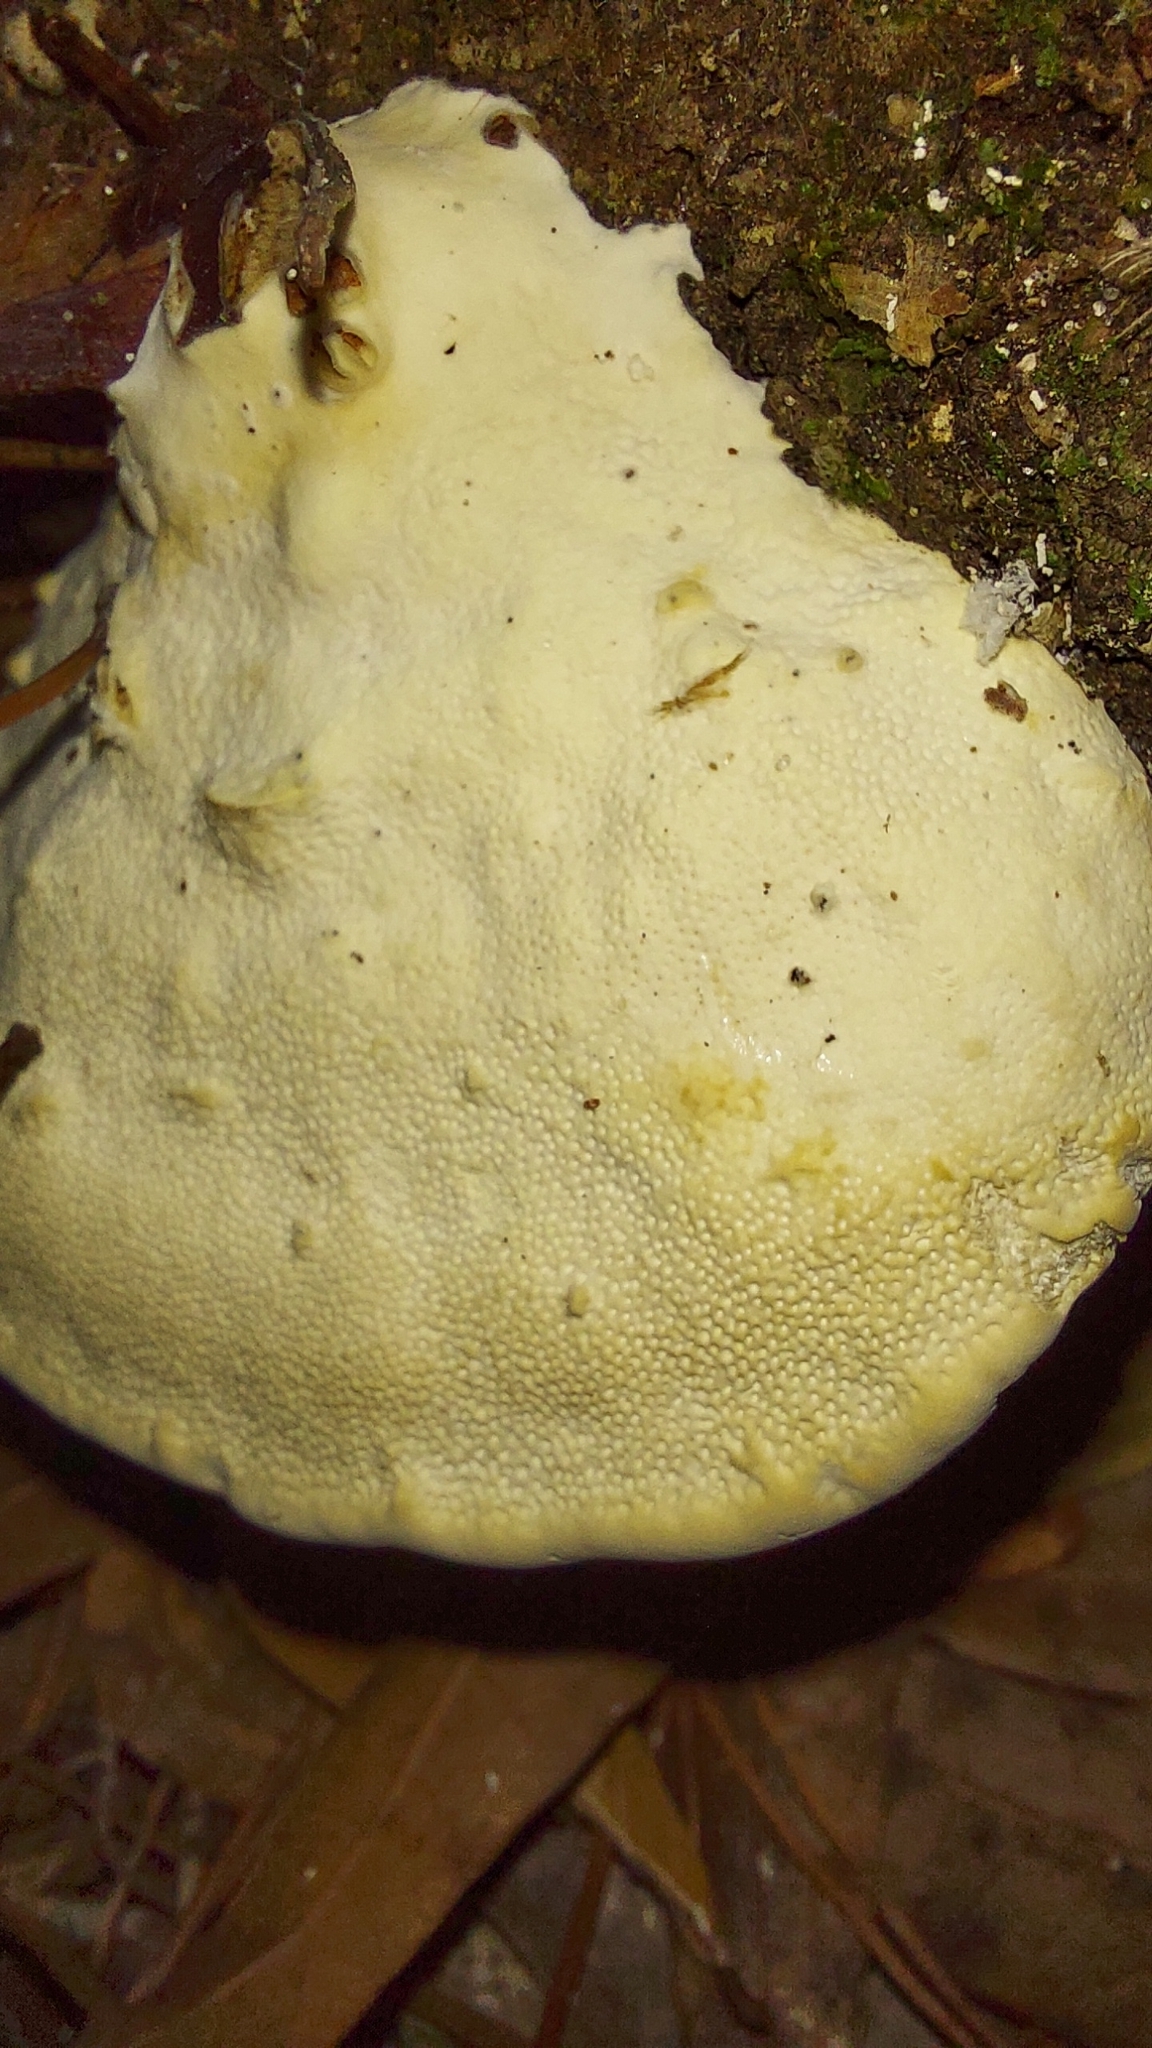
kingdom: Fungi
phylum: Basidiomycota
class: Agaricomycetes
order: Polyporales
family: Polyporaceae
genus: Trametes
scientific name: Trametes lactinea
